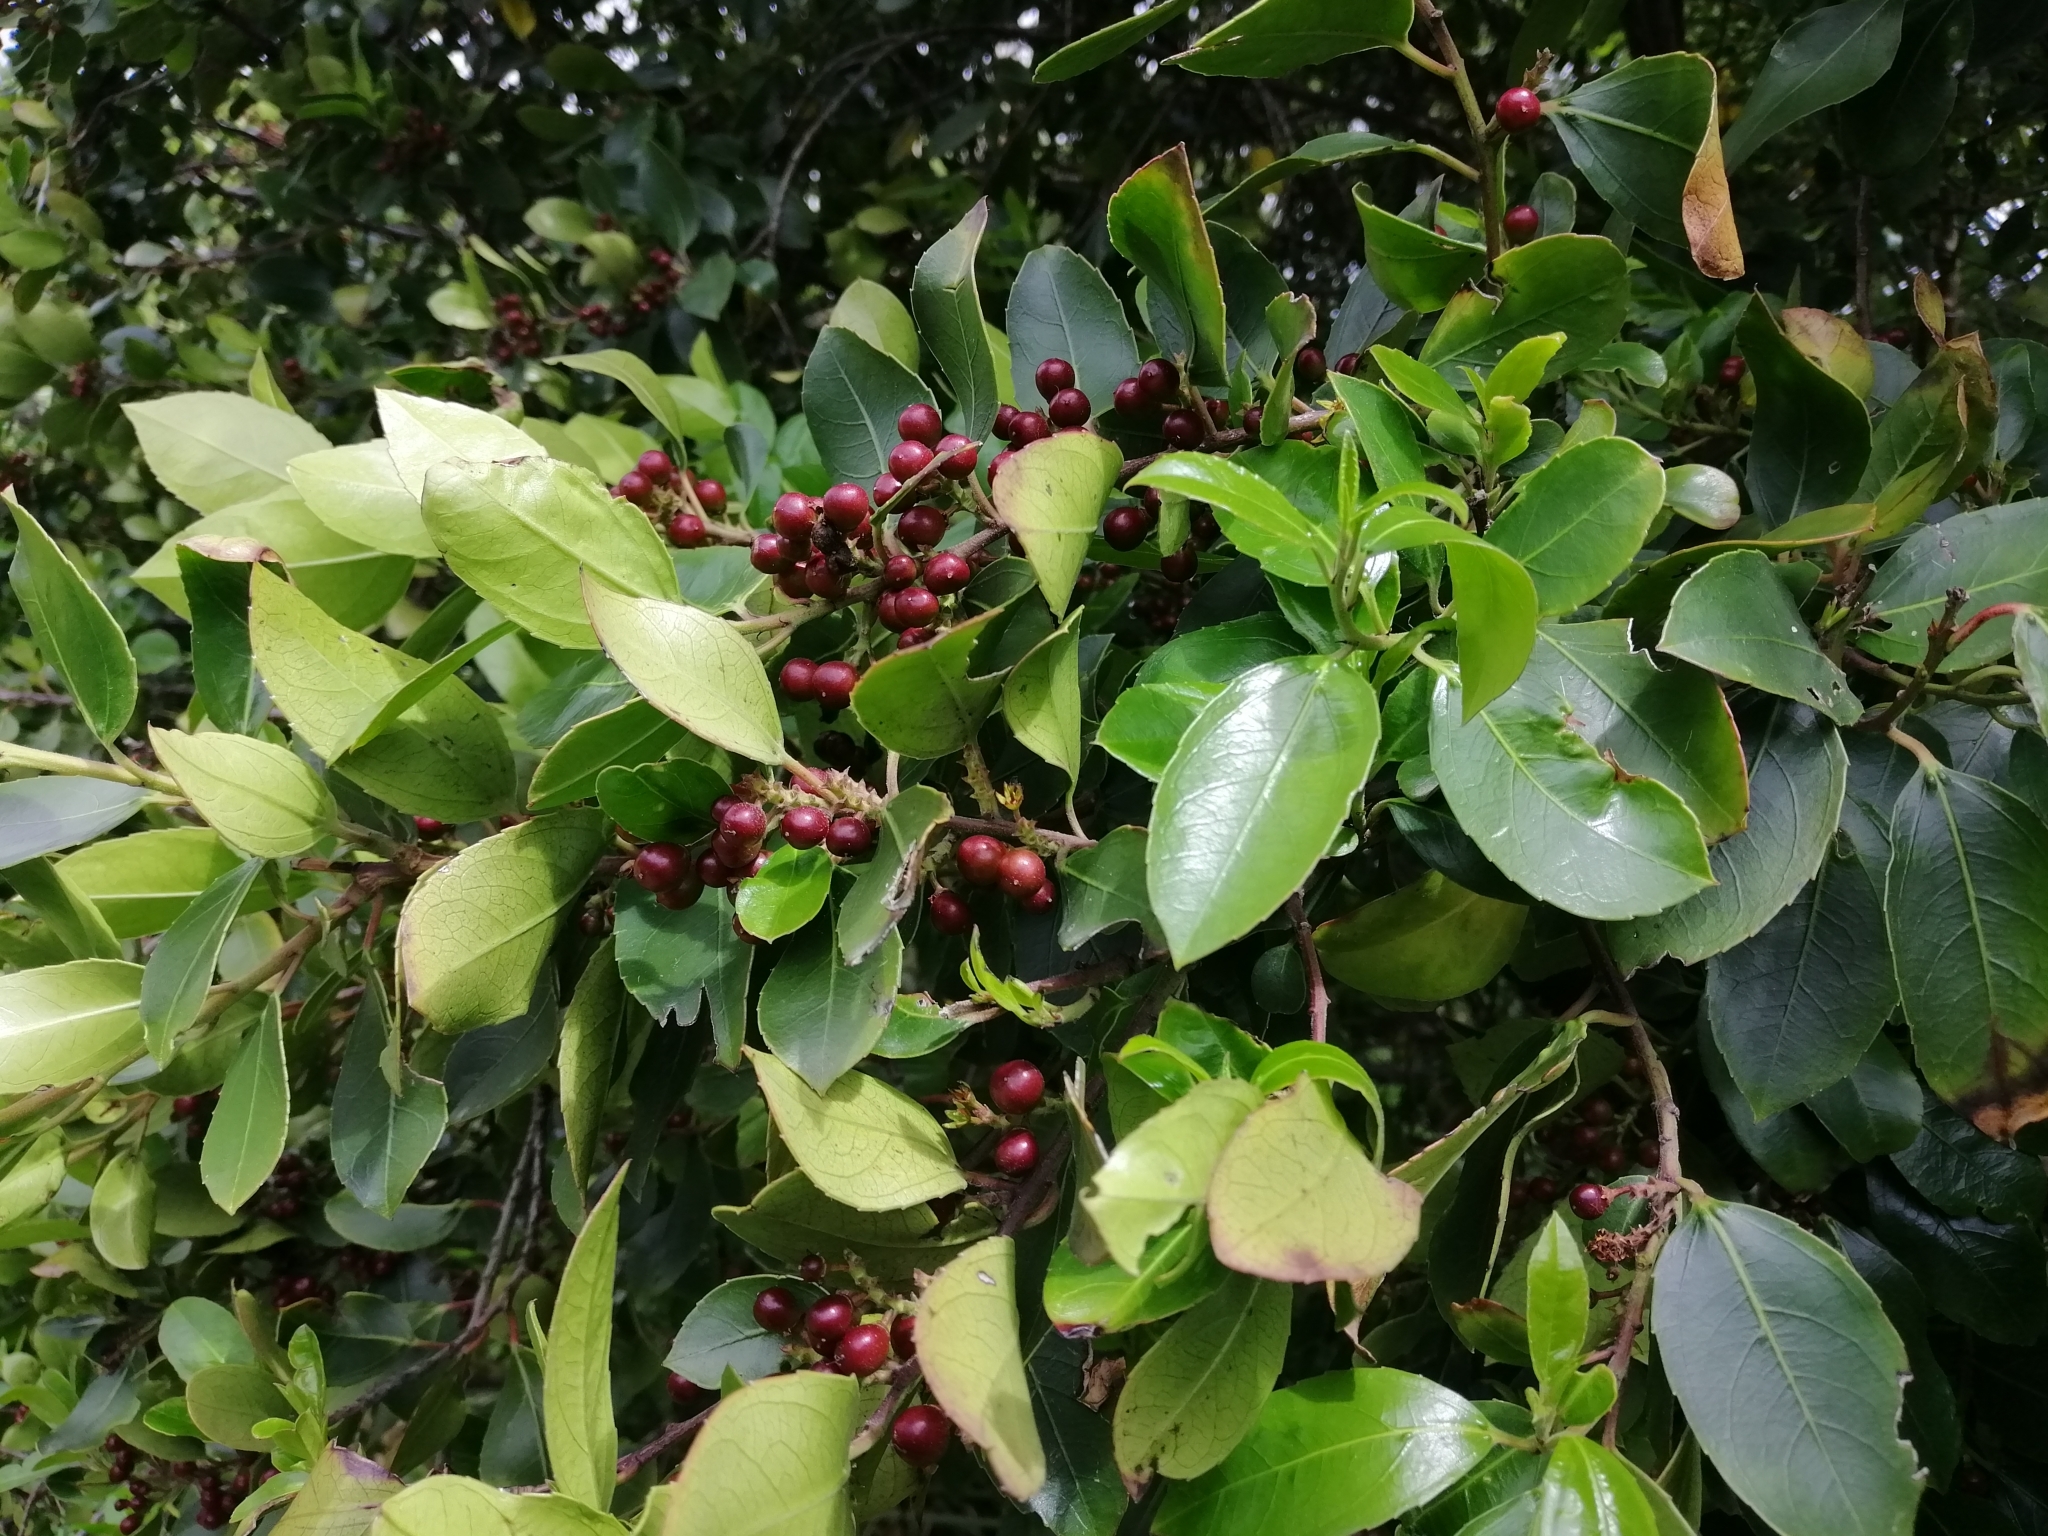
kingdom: Plantae
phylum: Tracheophyta
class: Magnoliopsida
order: Rosales
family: Rhamnaceae
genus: Rhamnus
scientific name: Rhamnus alaternus
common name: Mediterranean buckthorn
